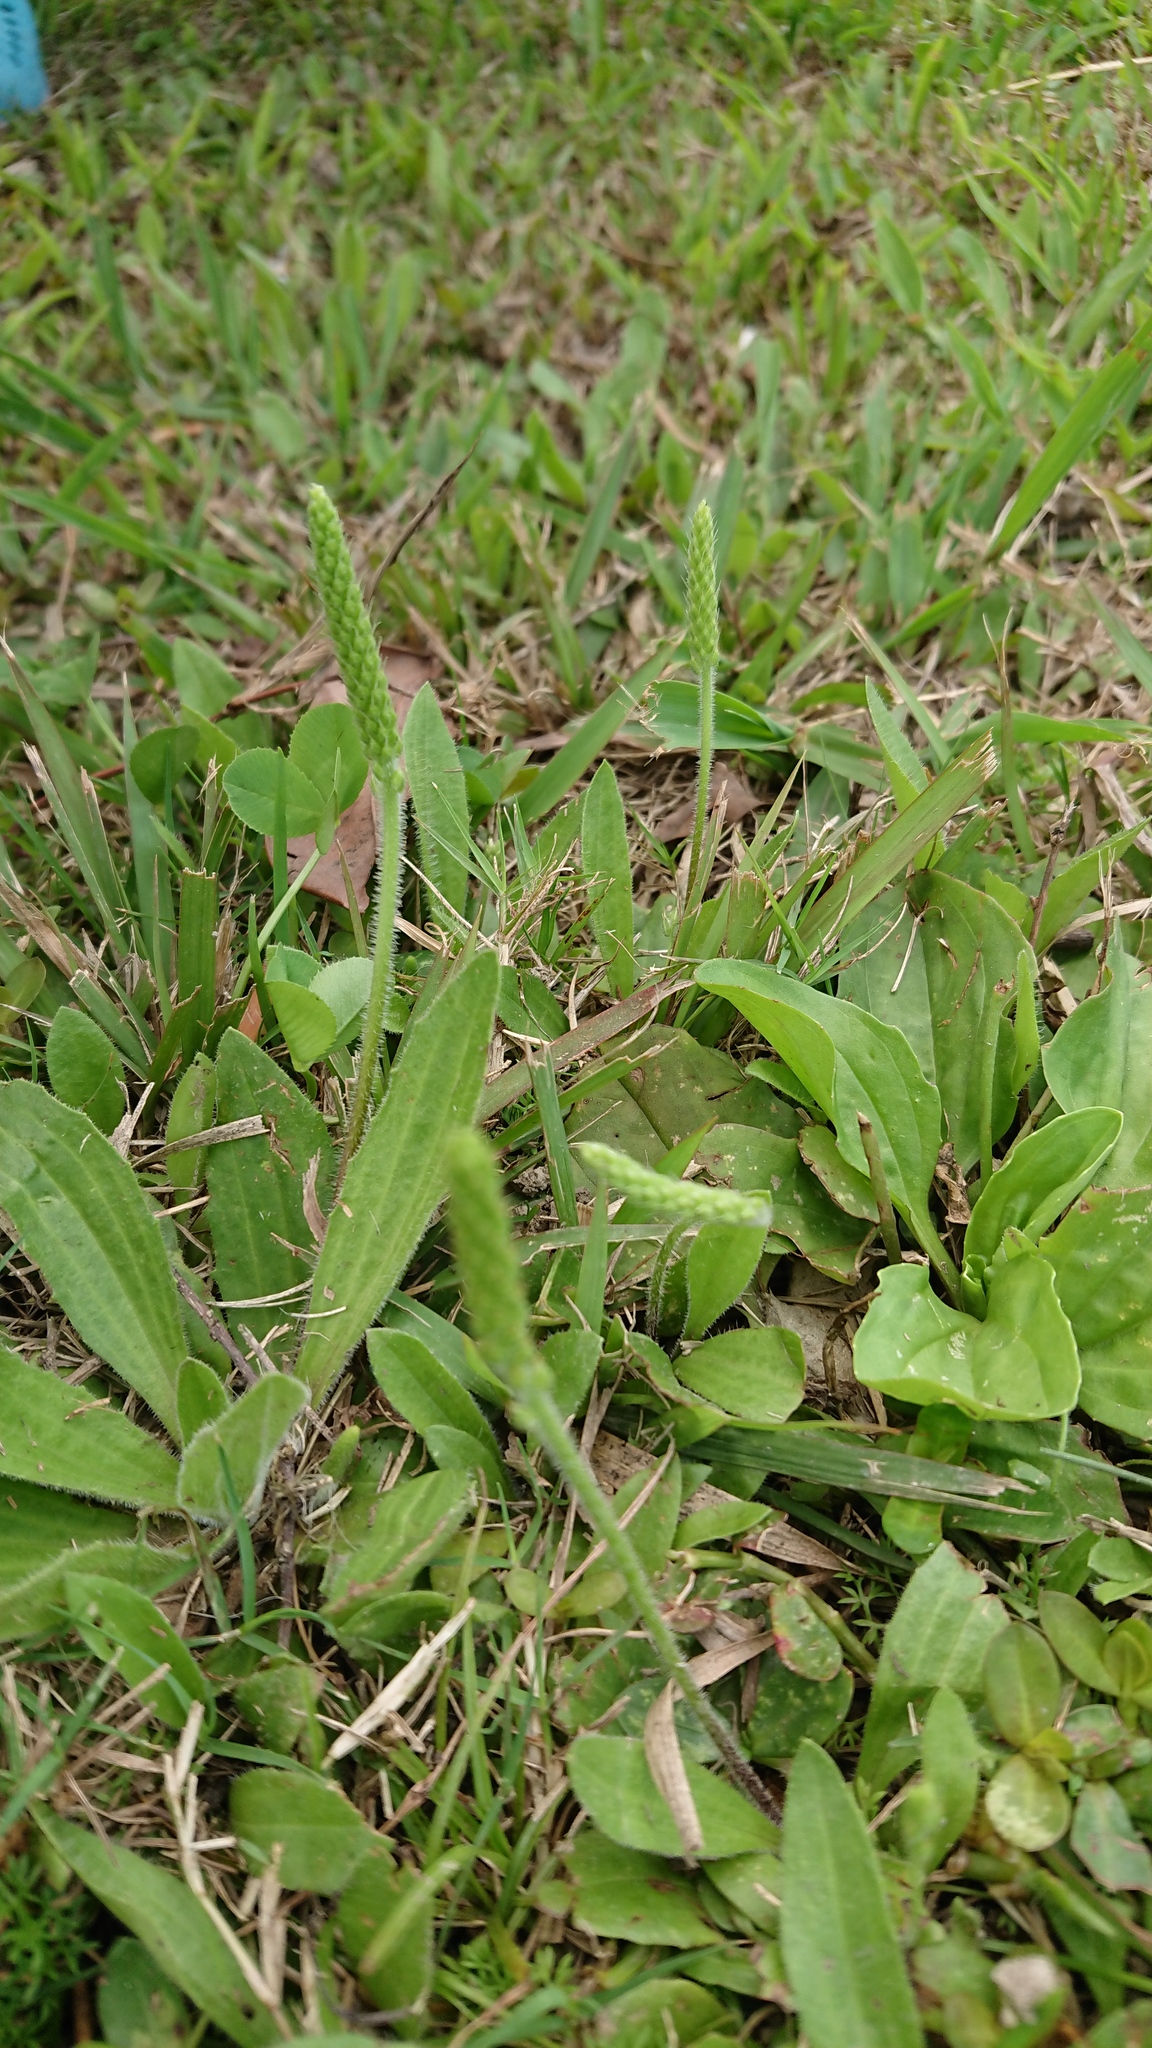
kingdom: Plantae
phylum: Tracheophyta
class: Magnoliopsida
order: Lamiales
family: Plantaginaceae
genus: Plantago
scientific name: Plantago virginica
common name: Hoary plantain
